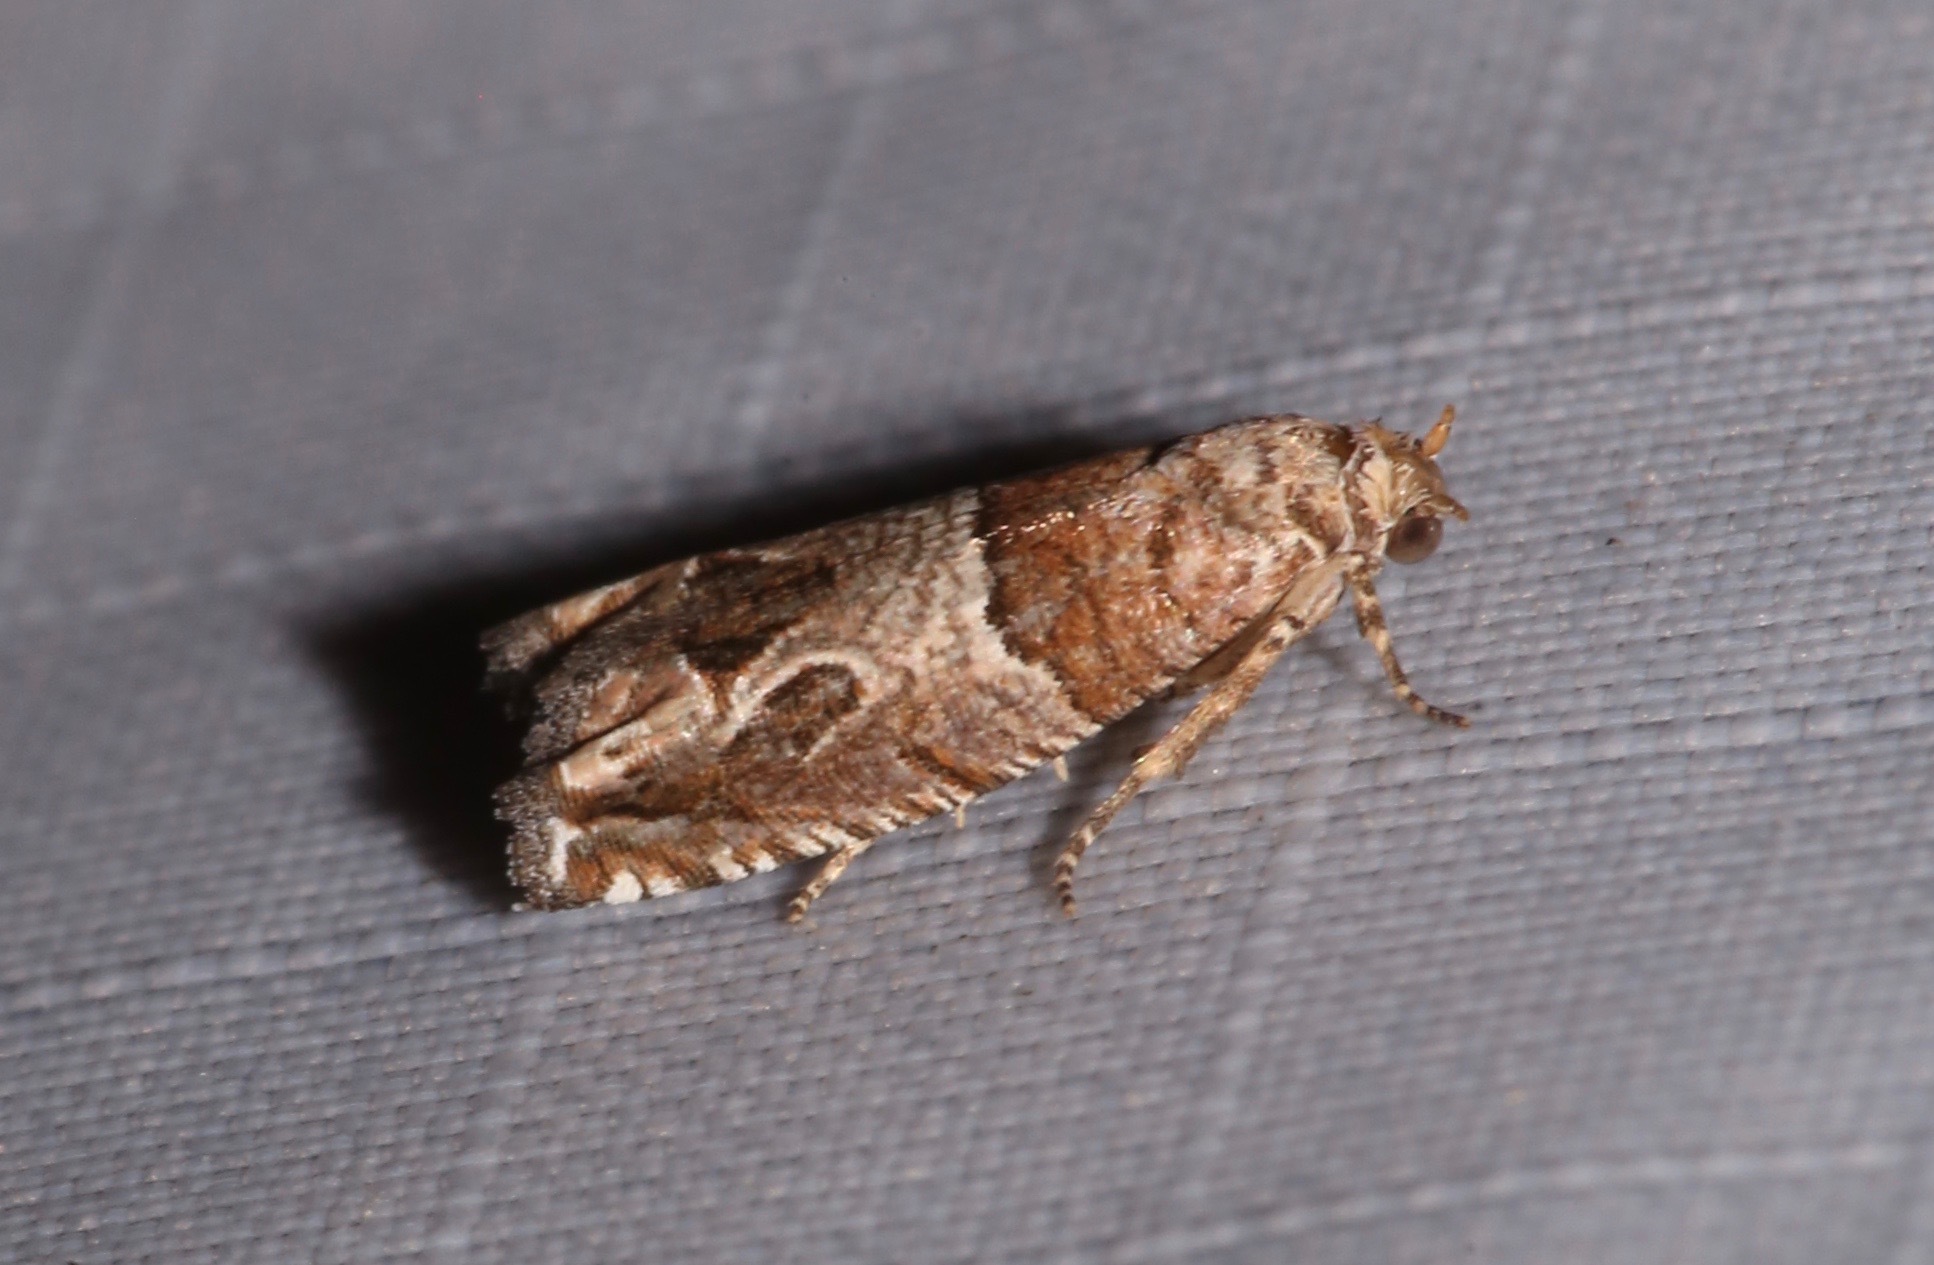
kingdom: Animalia
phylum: Arthropoda
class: Insecta
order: Lepidoptera
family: Tortricidae
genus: Sonia
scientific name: Sonia constrictana
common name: Constricted sonia moth
